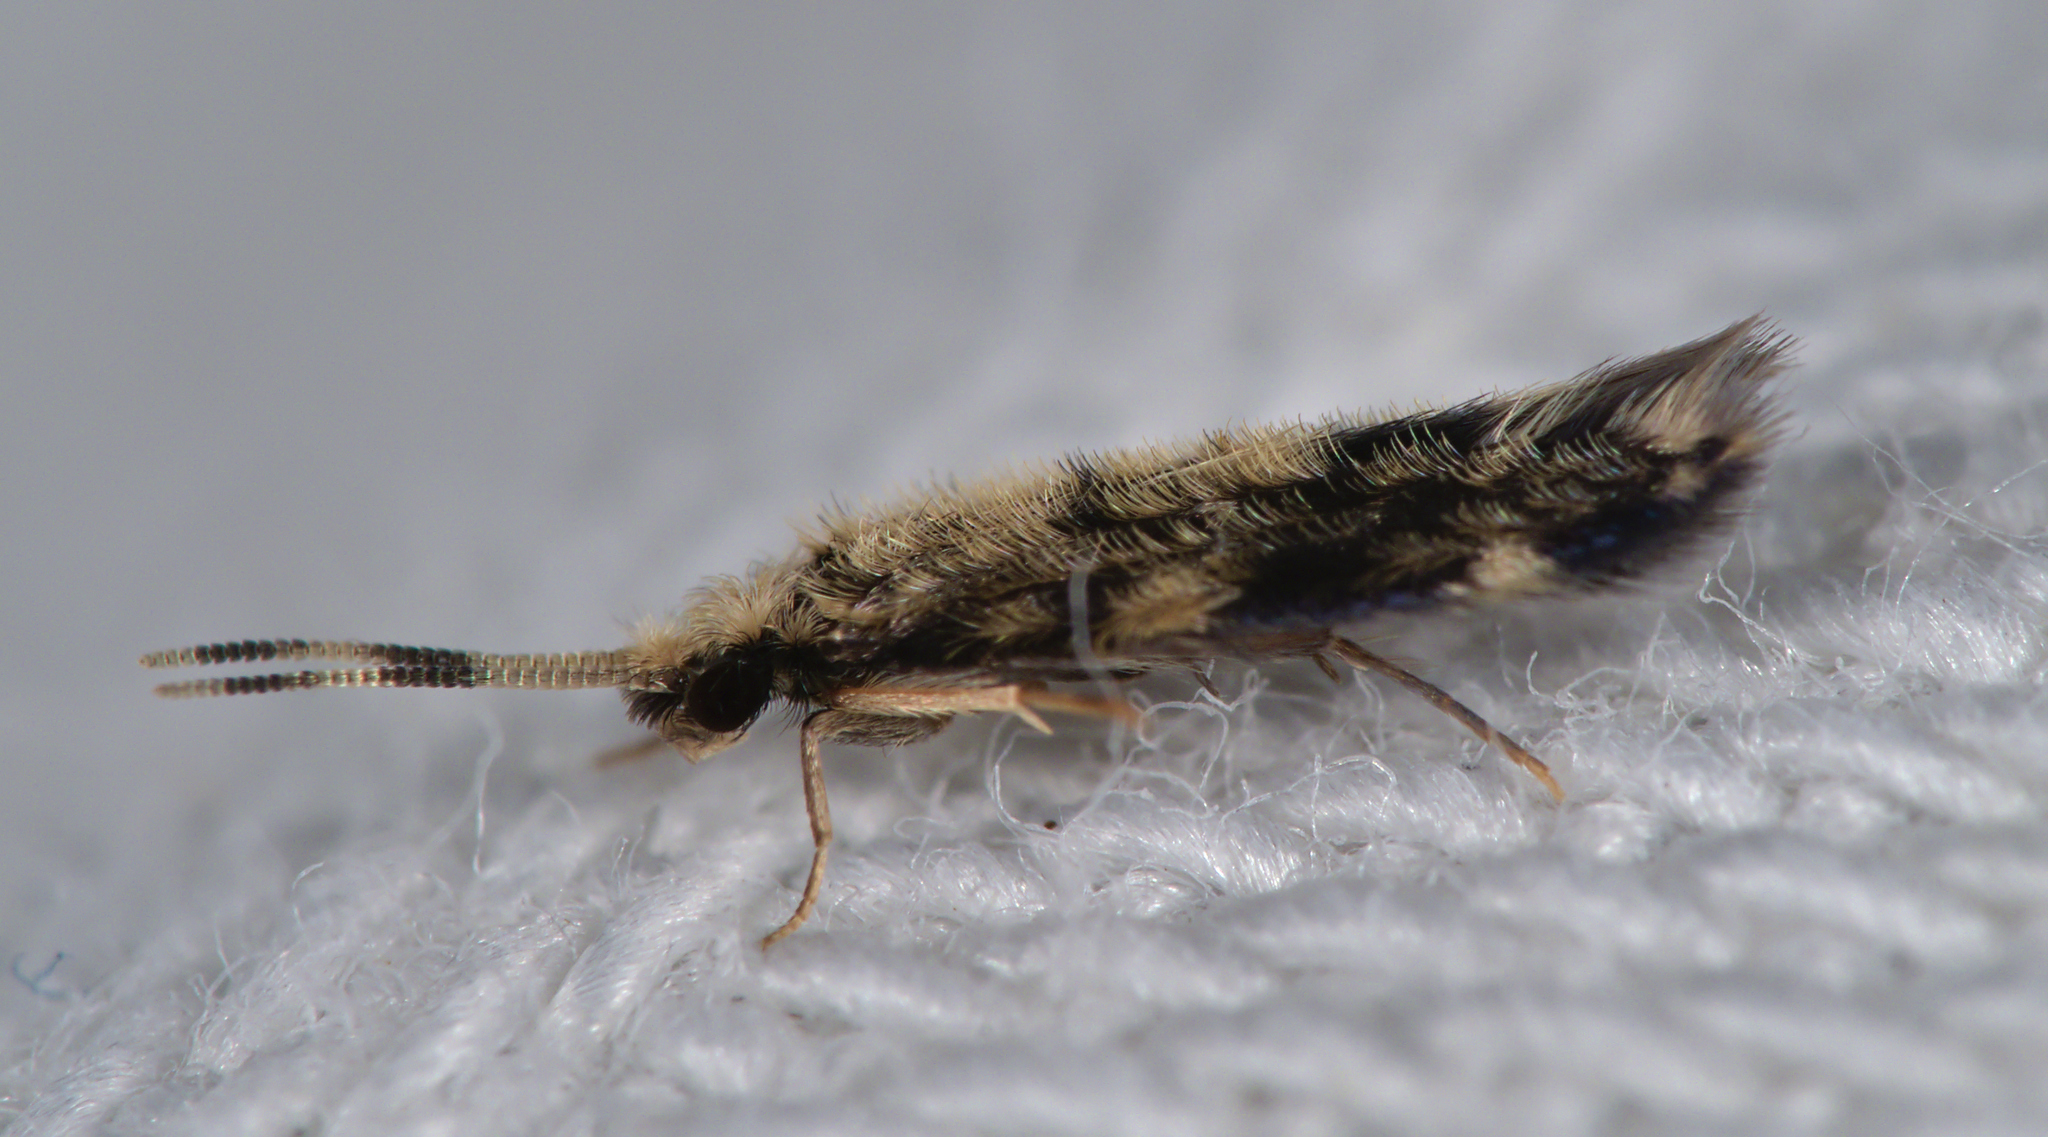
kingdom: Animalia
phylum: Arthropoda
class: Insecta
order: Trichoptera
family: Hydroptilidae
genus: Hydroptila
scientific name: Hydroptila
